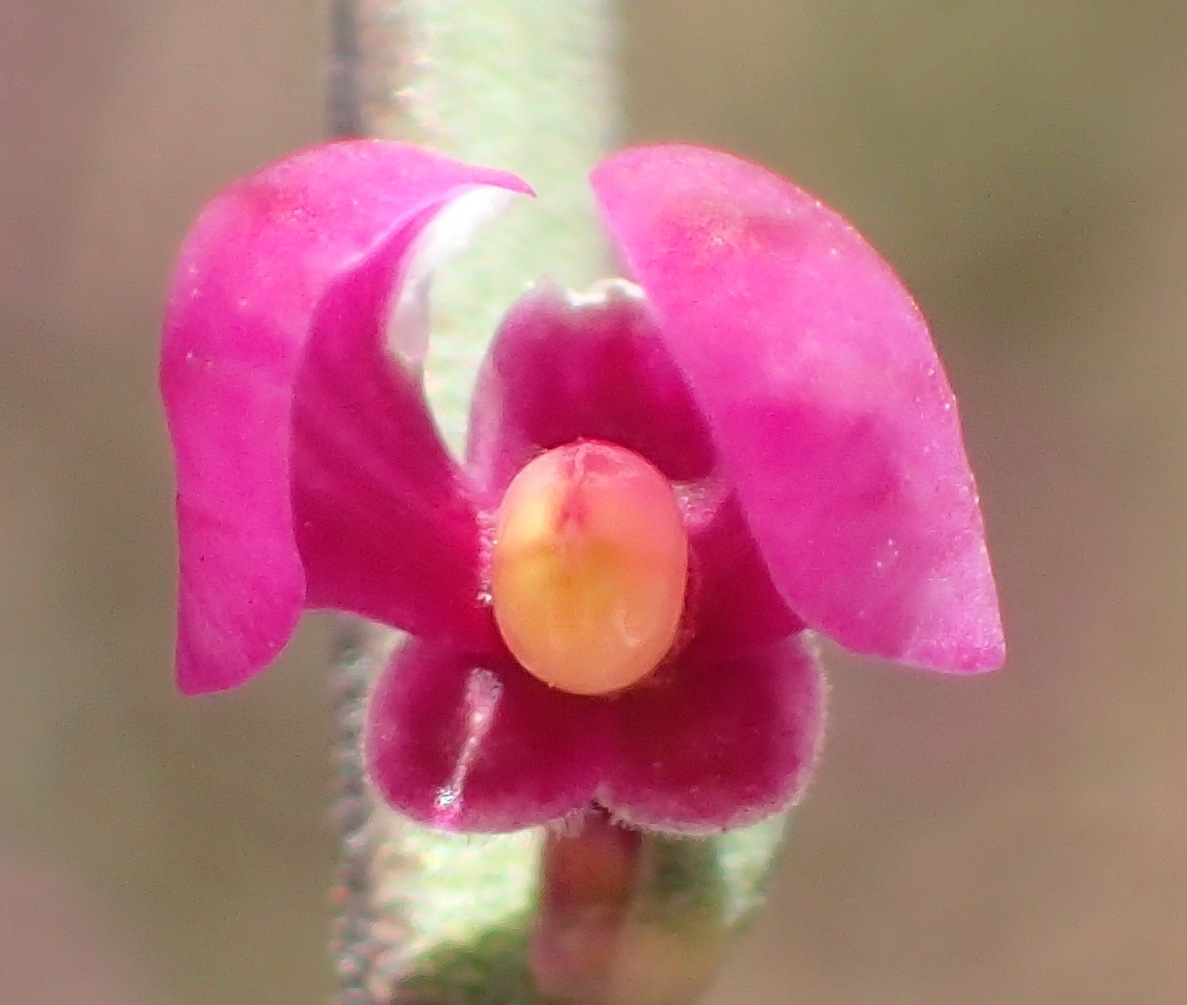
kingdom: Plantae
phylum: Tracheophyta
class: Magnoliopsida
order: Fabales
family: Polygalaceae
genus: Muraltia
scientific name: Muraltia spinosa
